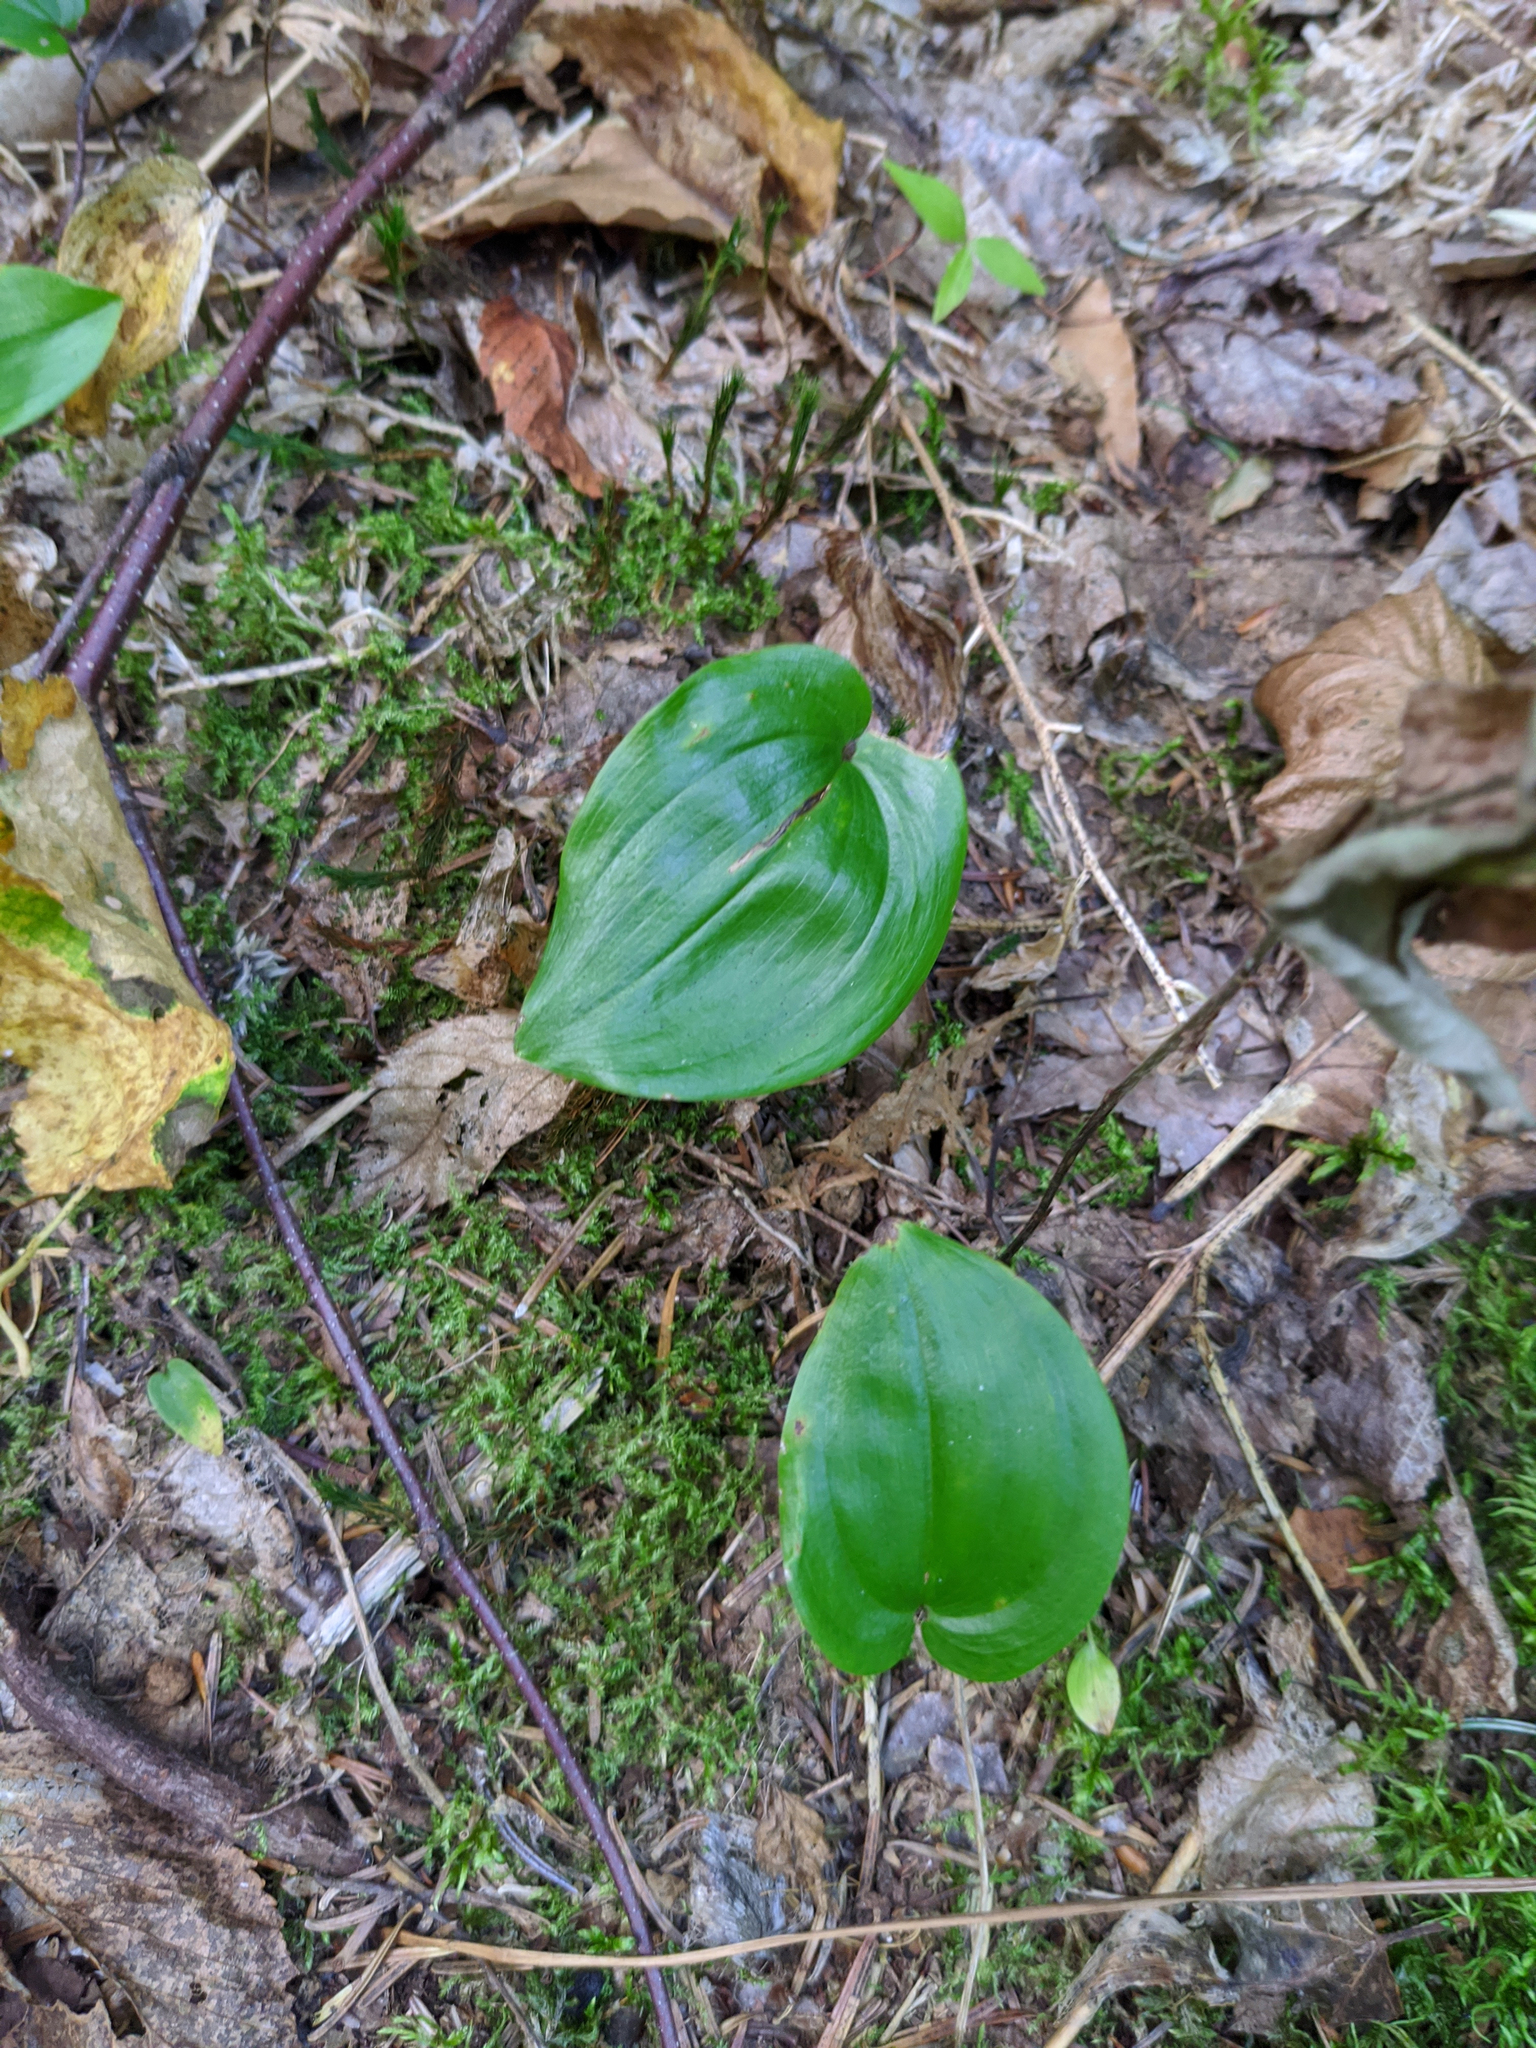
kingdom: Plantae
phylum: Tracheophyta
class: Liliopsida
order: Asparagales
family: Asparagaceae
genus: Maianthemum
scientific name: Maianthemum canadense
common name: False lily-of-the-valley
